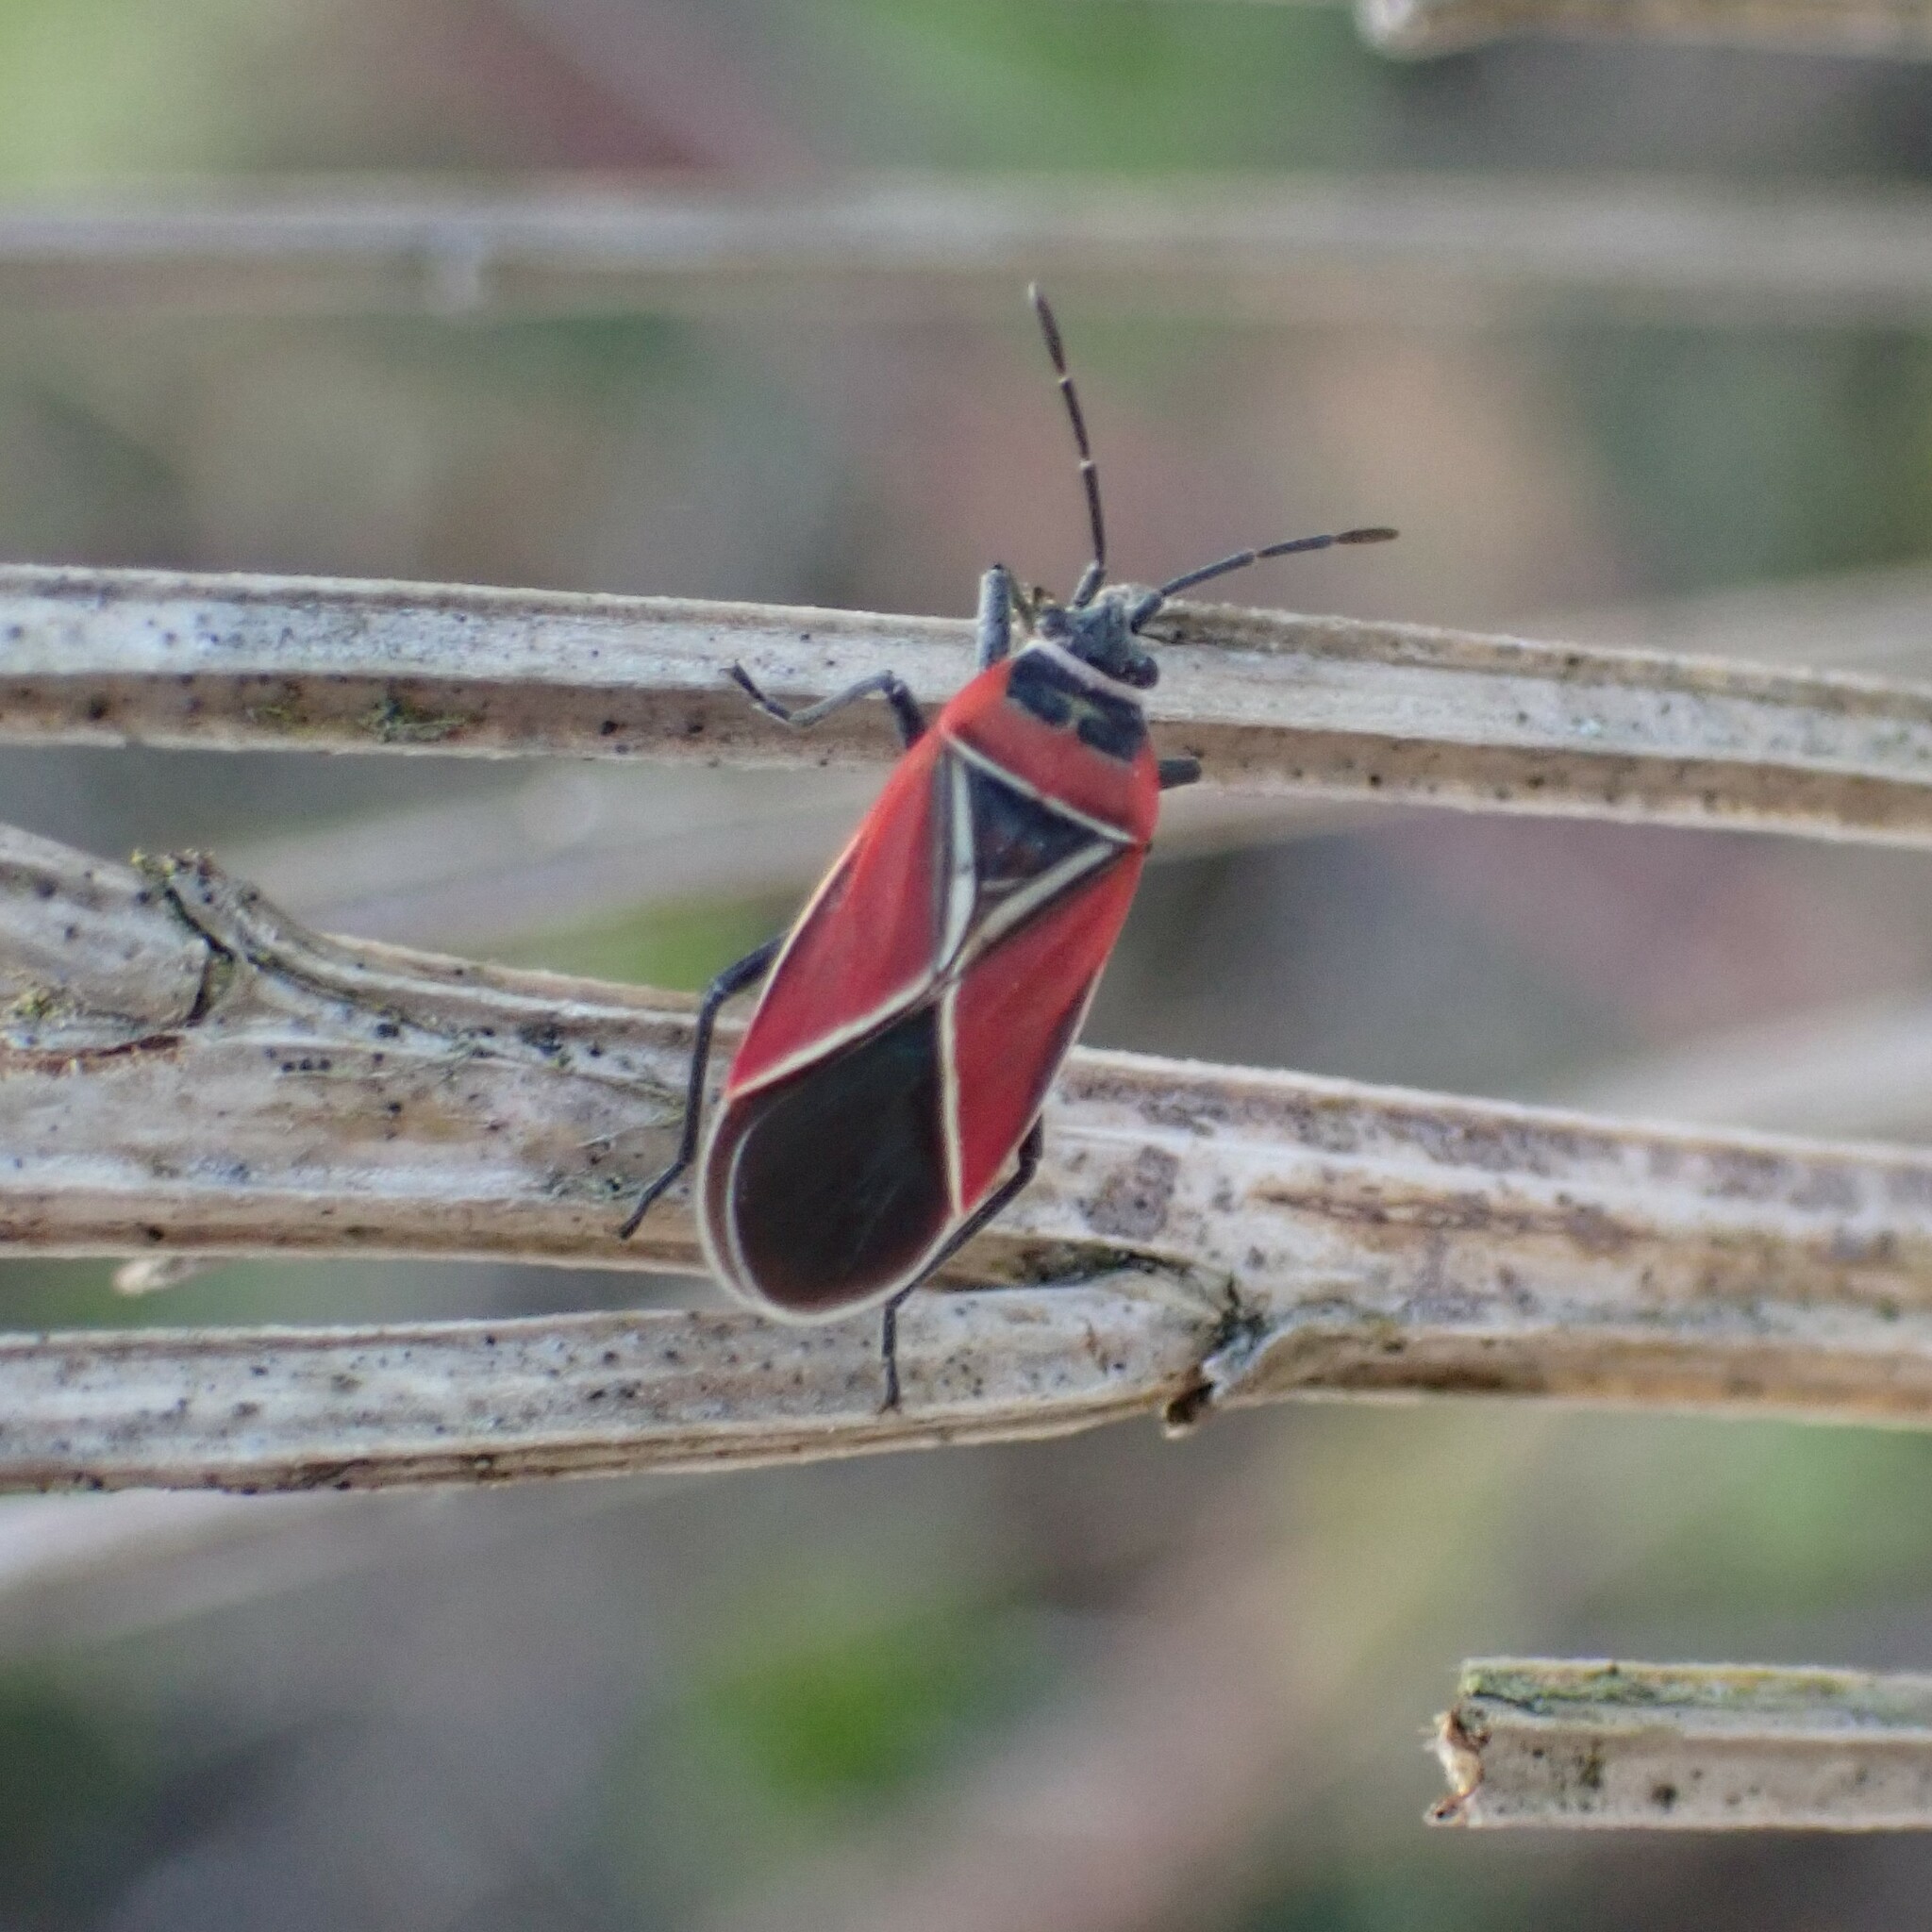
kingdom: Animalia
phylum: Arthropoda
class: Insecta
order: Hemiptera
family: Lygaeidae
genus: Neacoryphus
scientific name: Neacoryphus bicrucis
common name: Lygaeid bug
